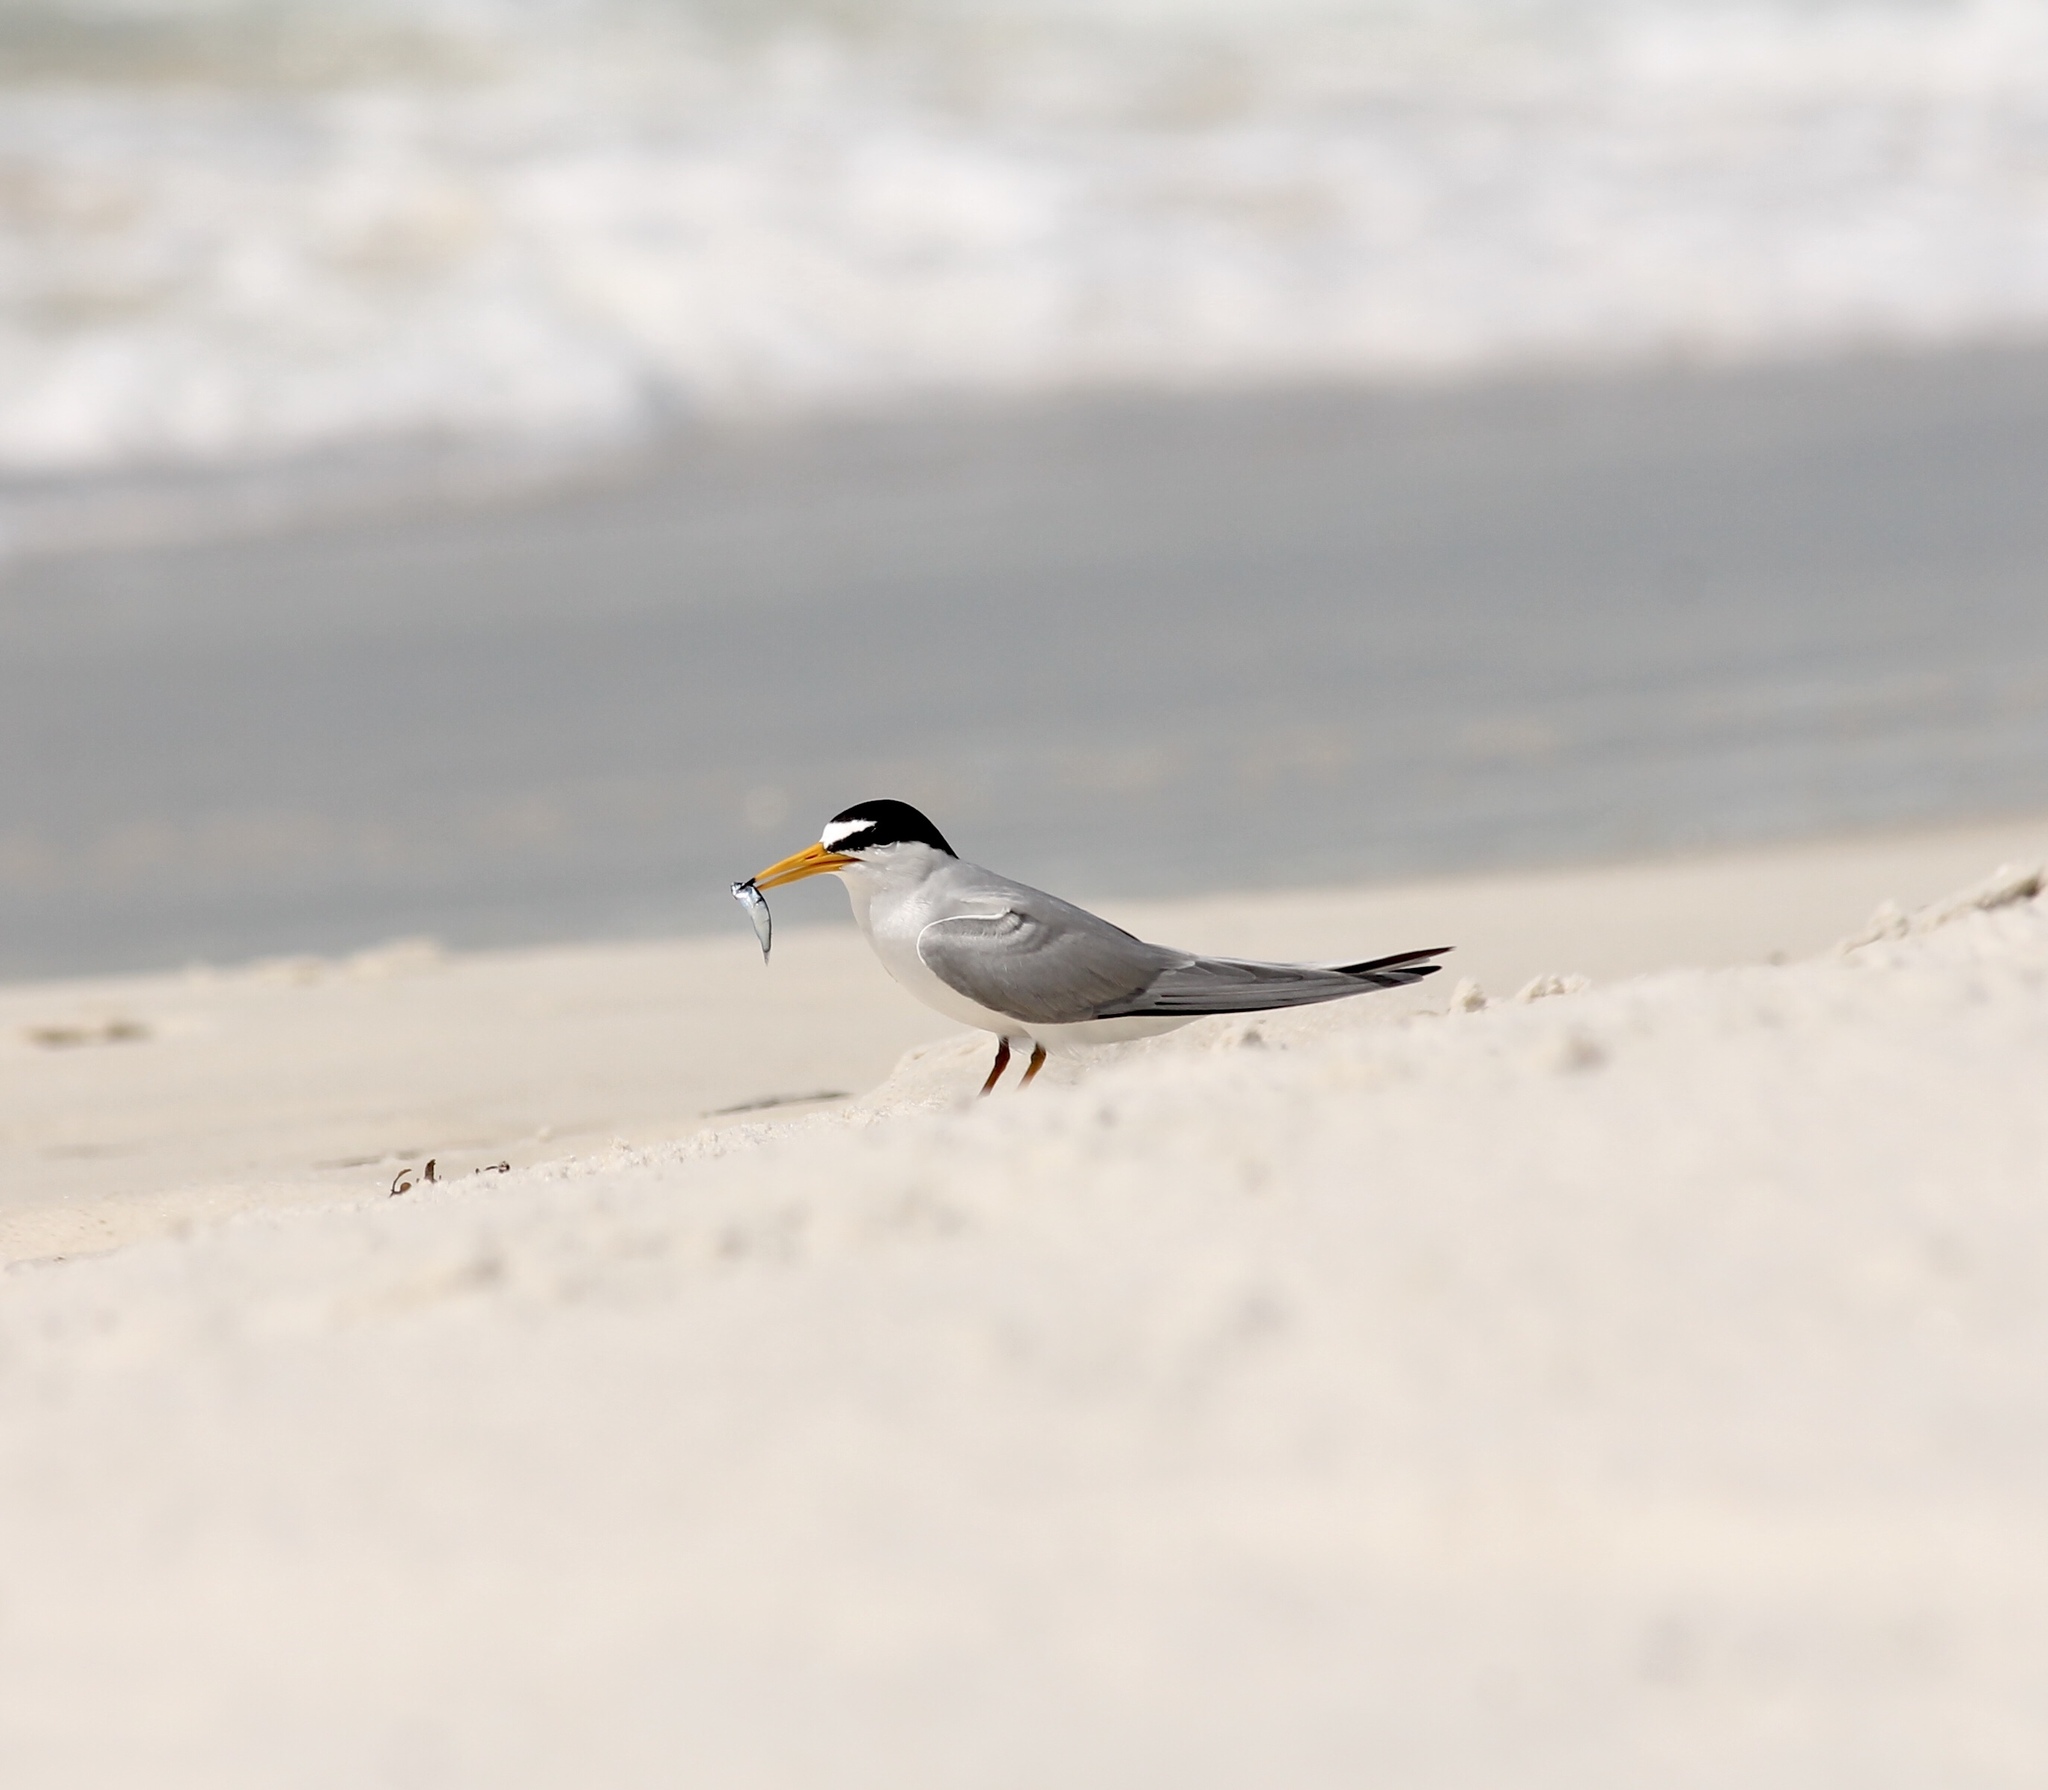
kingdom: Animalia
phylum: Chordata
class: Aves
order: Charadriiformes
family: Laridae
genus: Sternula
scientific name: Sternula antillarum
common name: Least tern
